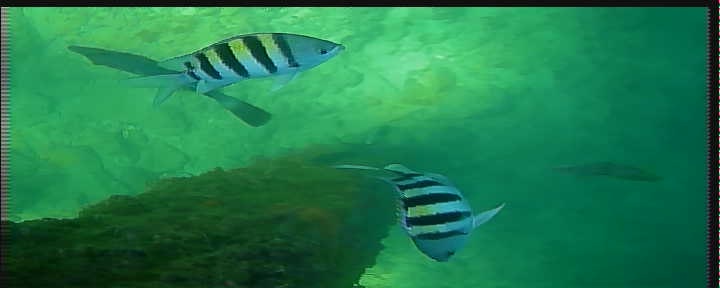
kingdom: Animalia
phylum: Chordata
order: Perciformes
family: Pomacentridae
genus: Abudefduf
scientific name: Abudefduf saxatilis
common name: Sergeant major
